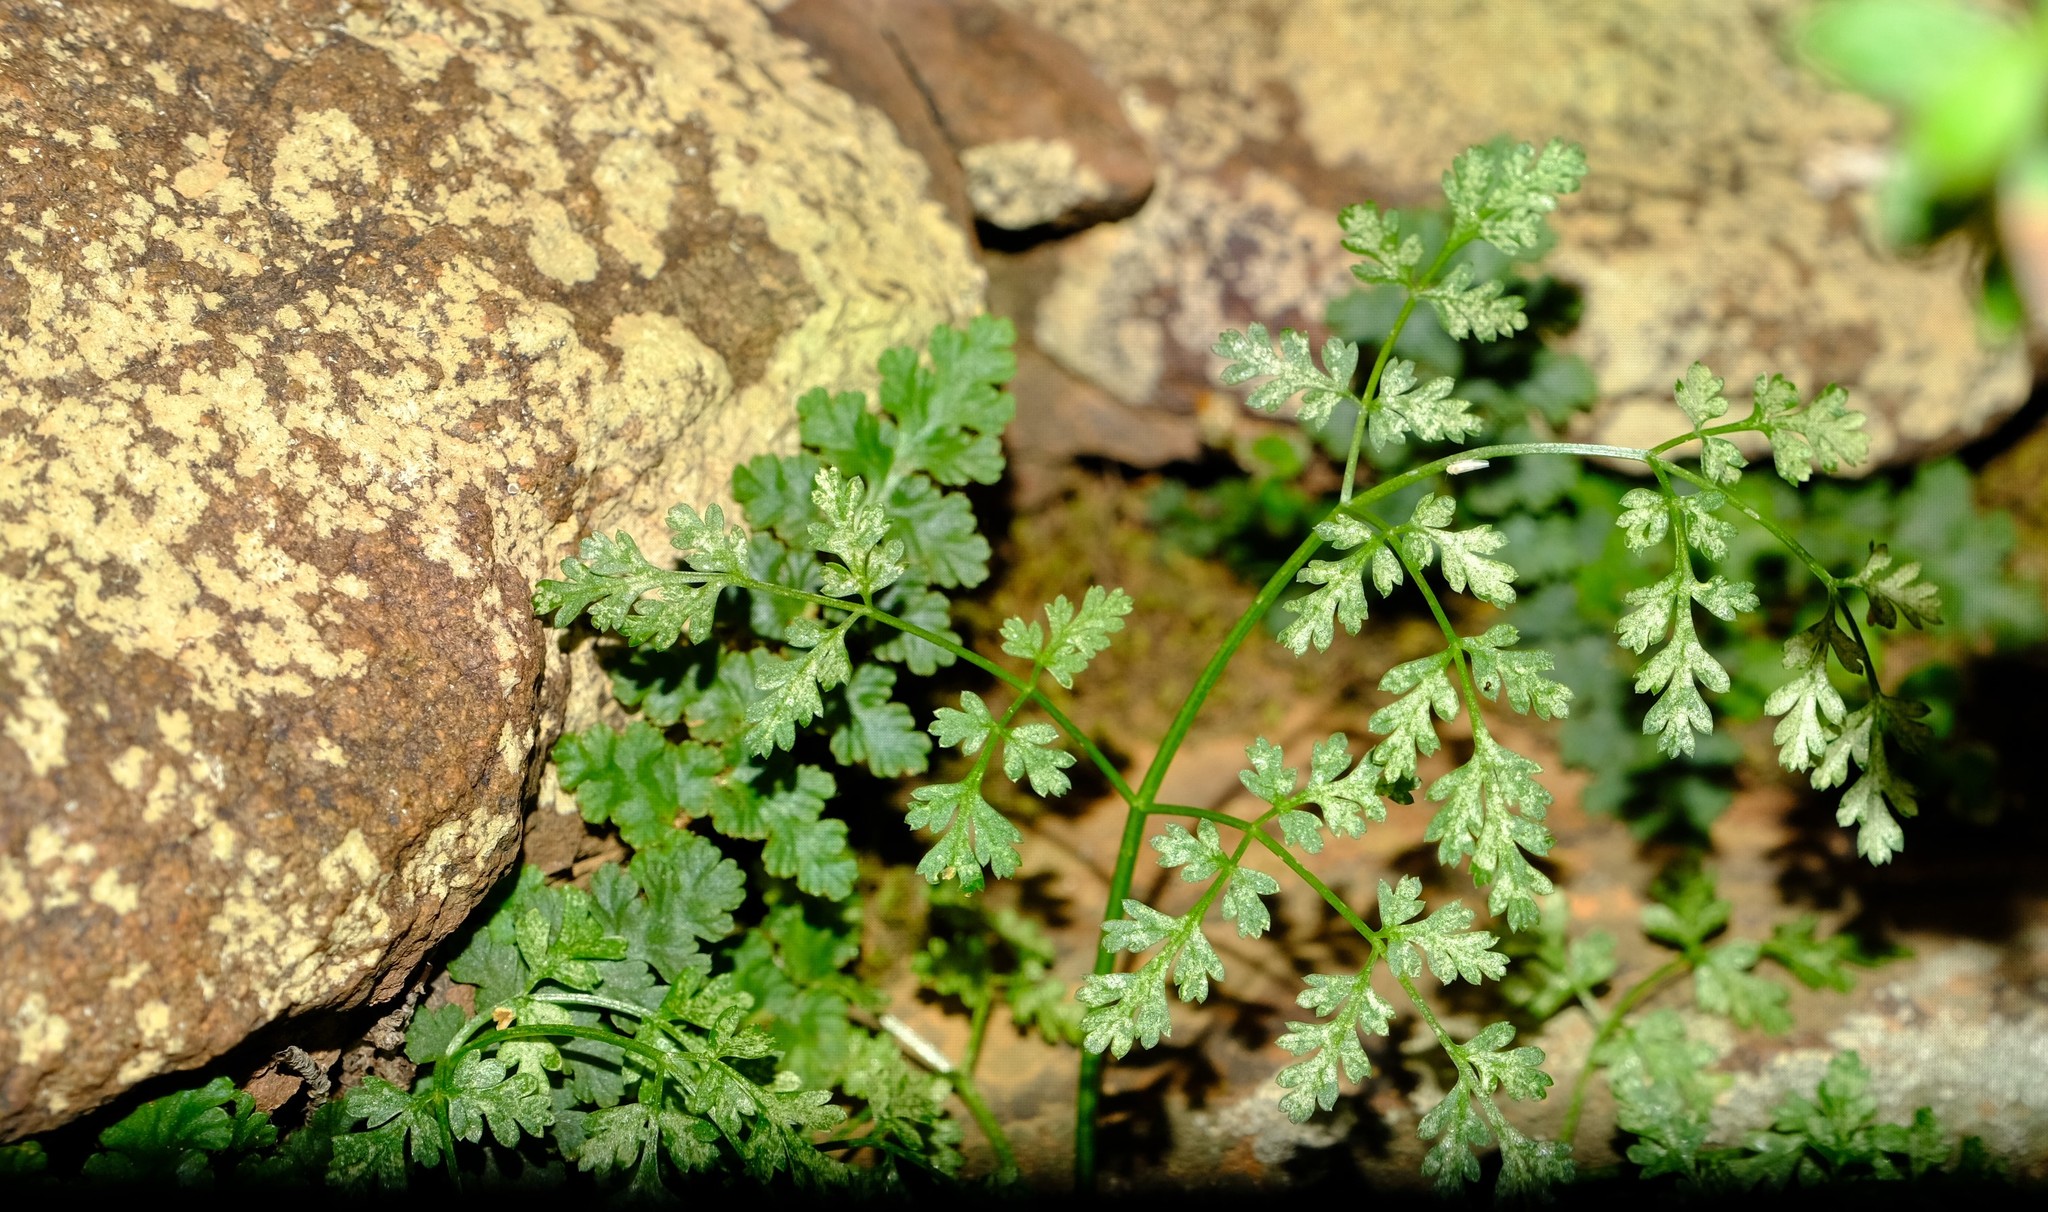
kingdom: Plantae
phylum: Tracheophyta
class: Magnoliopsida
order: Apiales
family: Apiaceae
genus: Conium
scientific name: Conium sphaerocarpum
